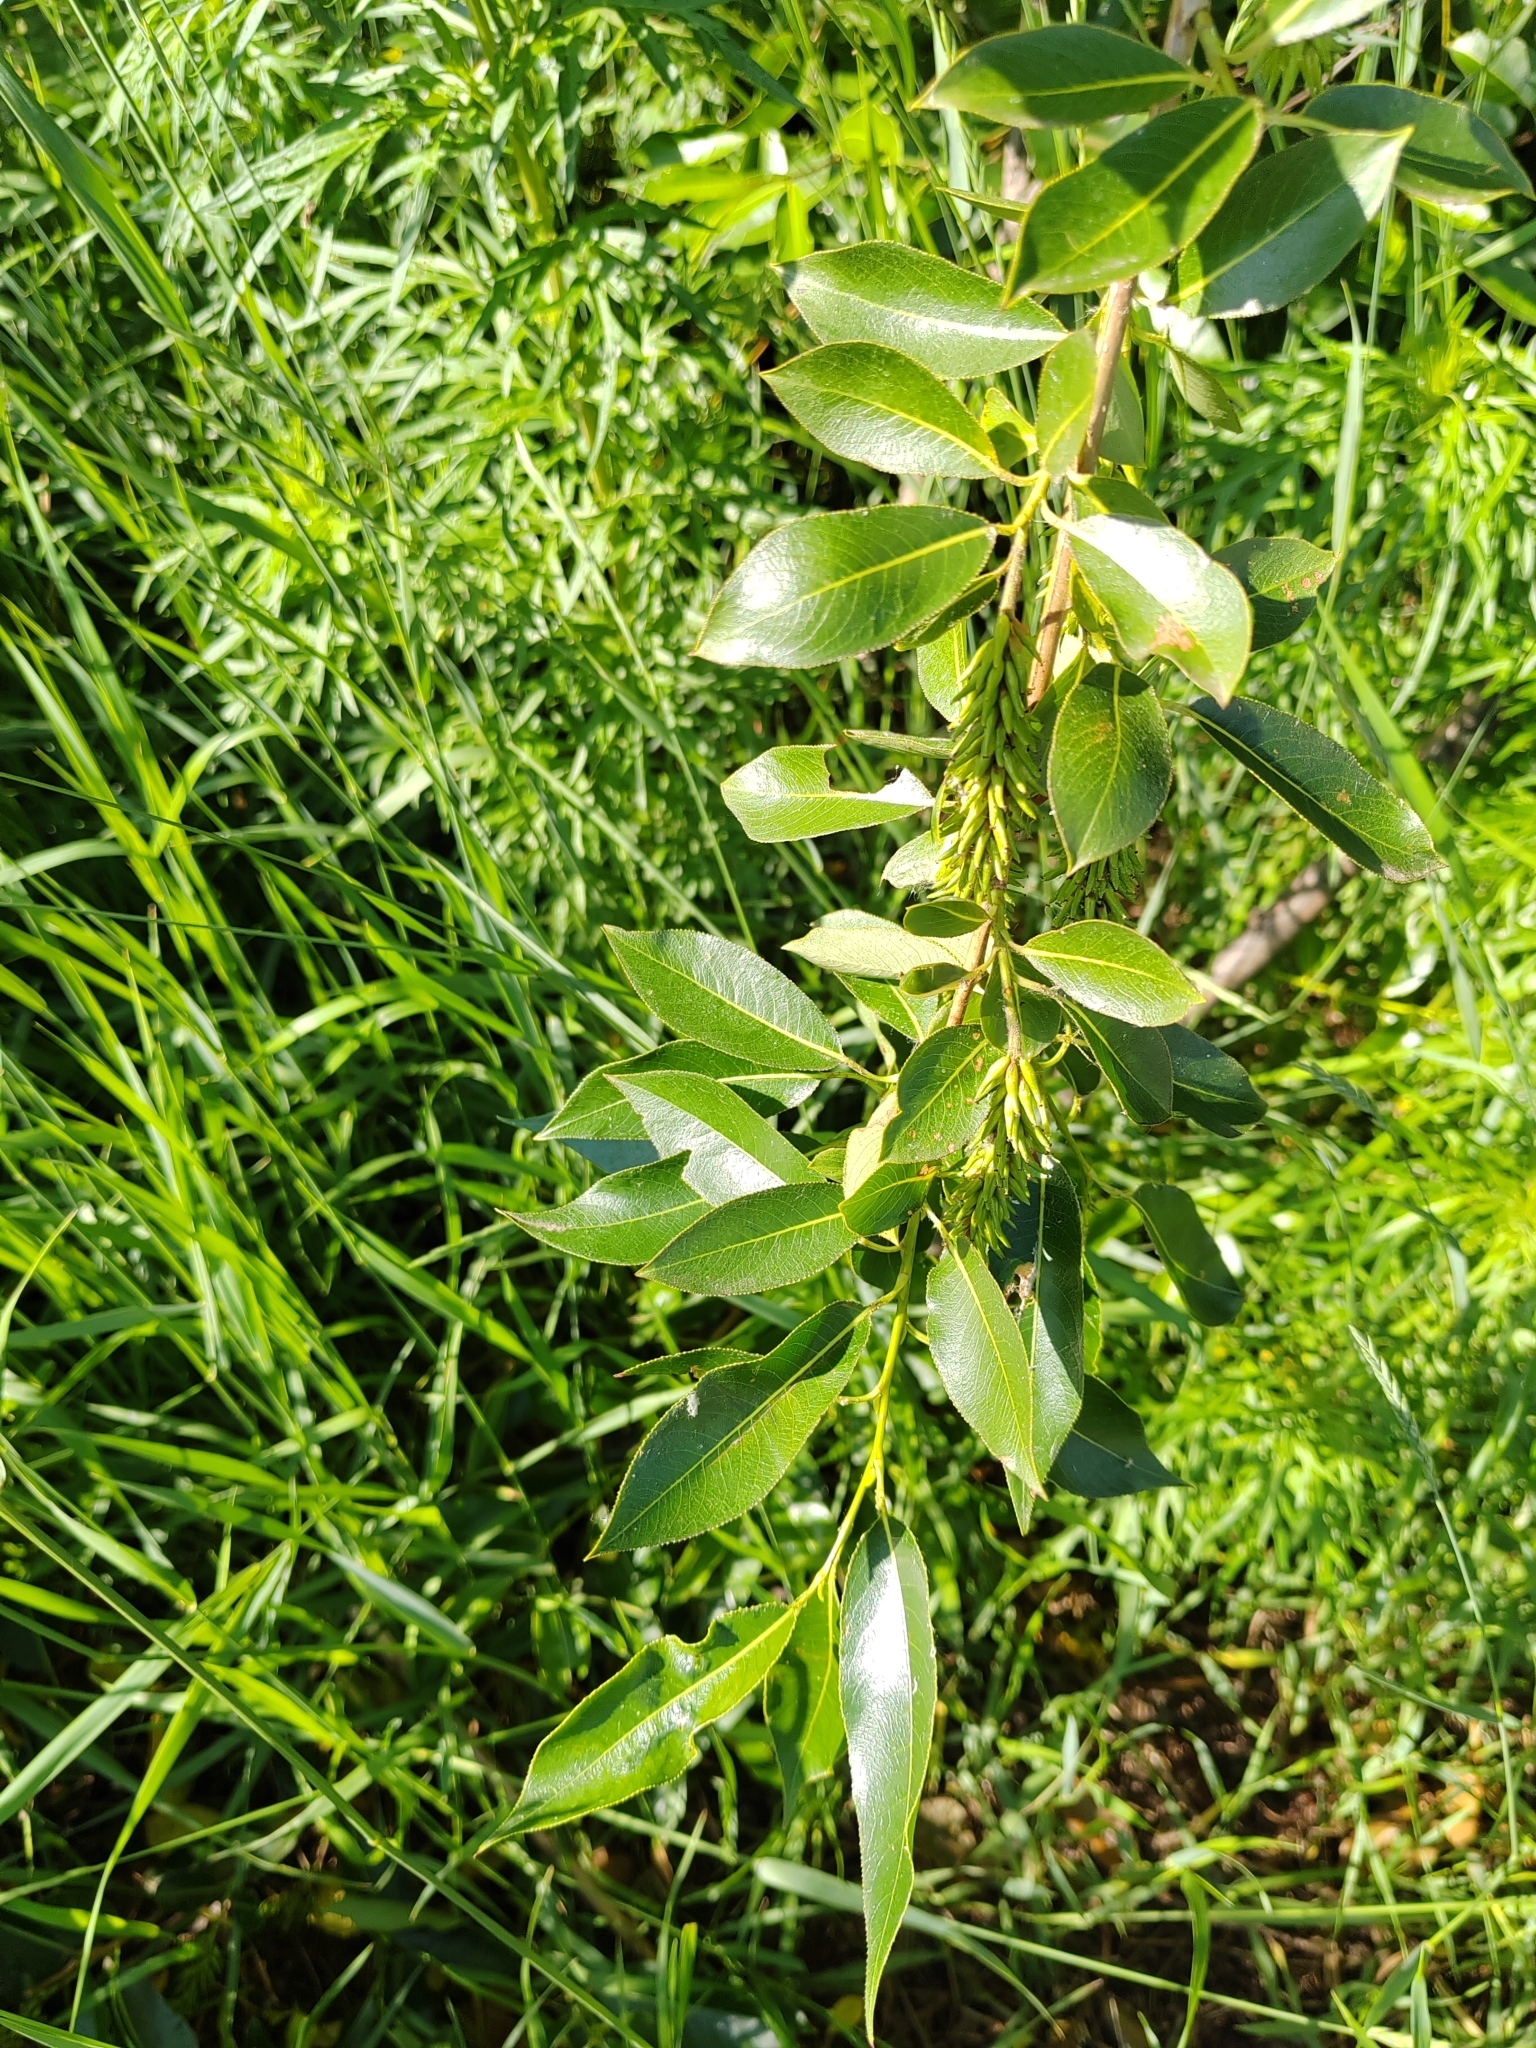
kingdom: Plantae
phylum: Tracheophyta
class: Magnoliopsida
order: Malpighiales
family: Salicaceae
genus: Salix
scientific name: Salix pentandra
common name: Bay willow
